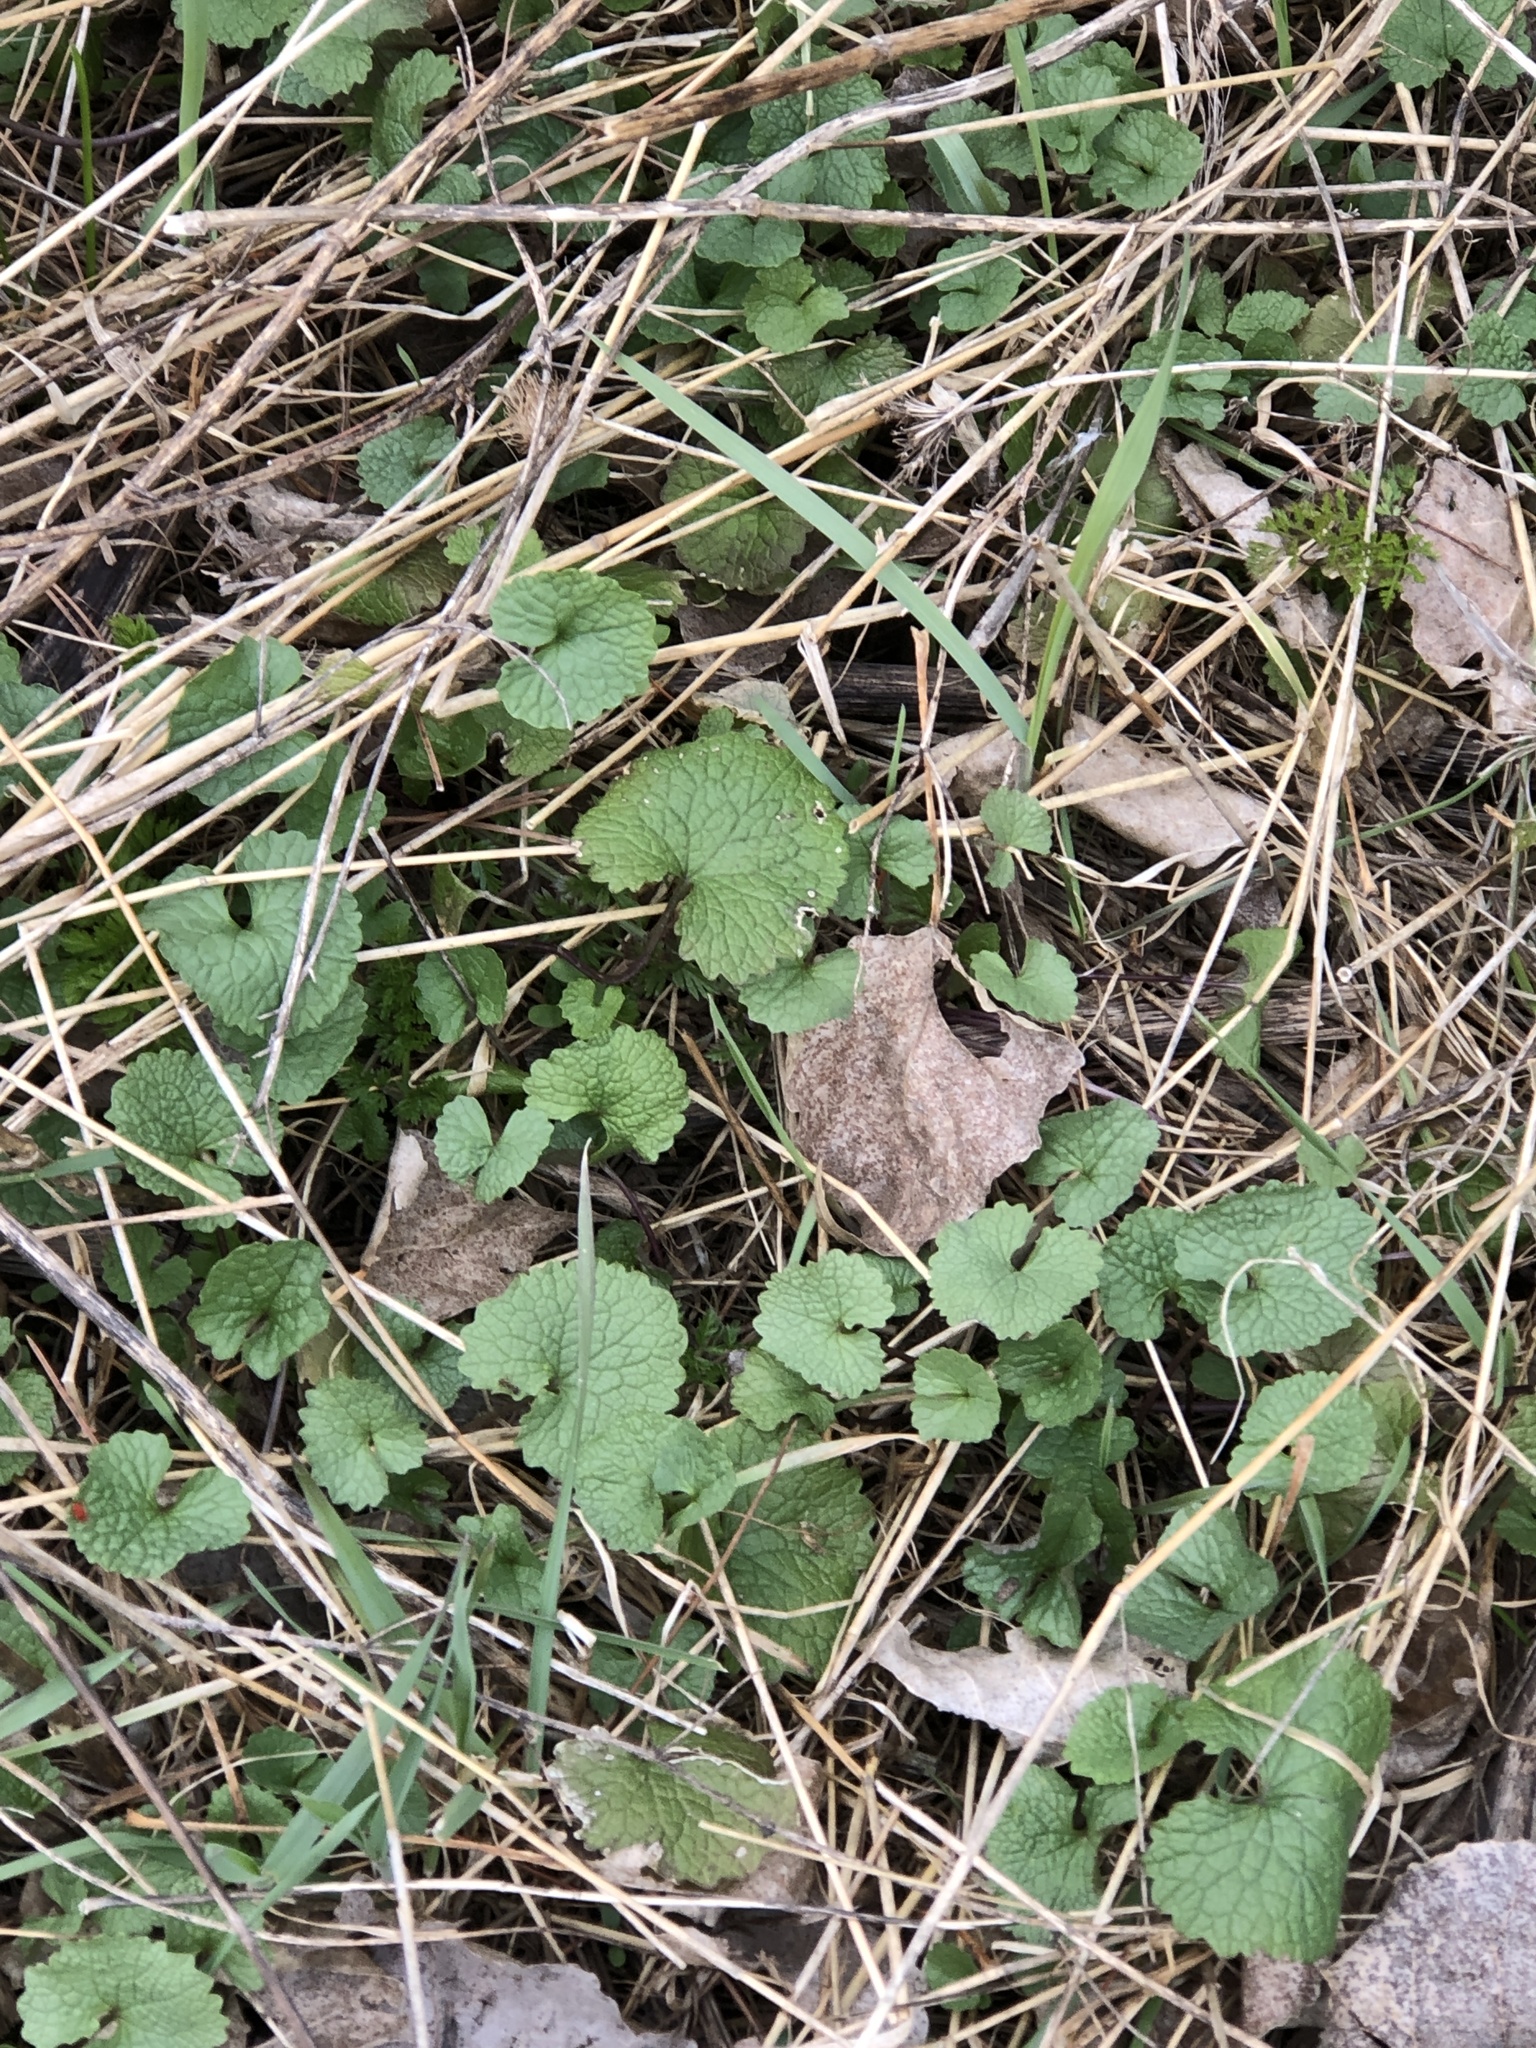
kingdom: Plantae
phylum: Tracheophyta
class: Magnoliopsida
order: Brassicales
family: Brassicaceae
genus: Alliaria
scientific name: Alliaria petiolata
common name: Garlic mustard
